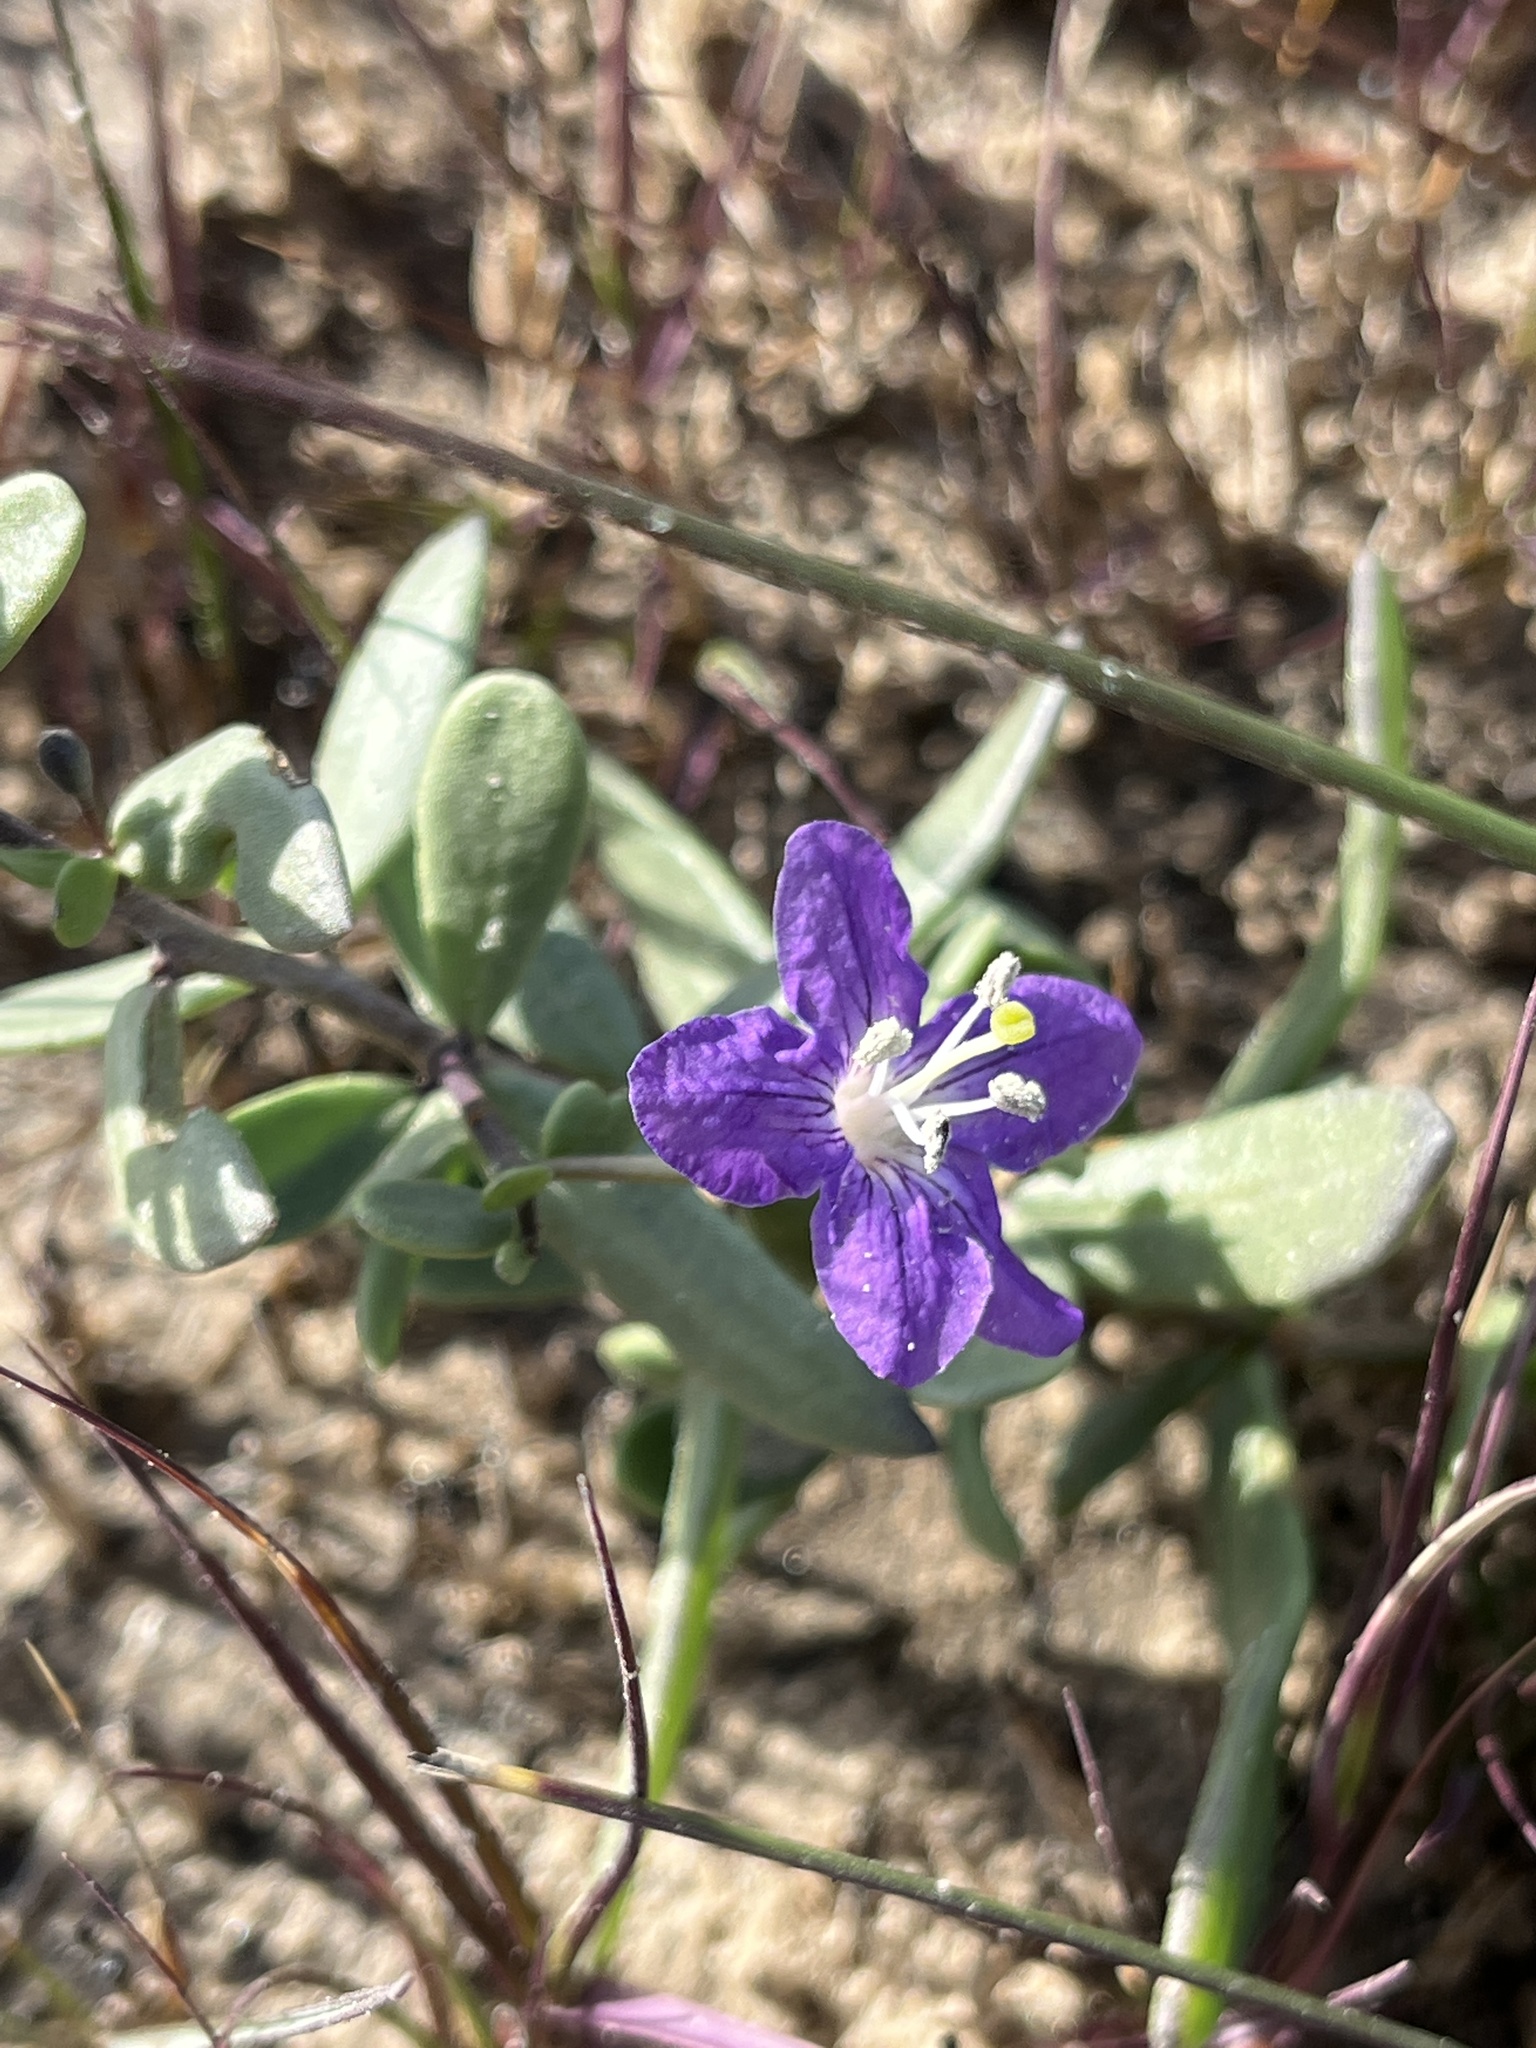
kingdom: Plantae
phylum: Tracheophyta
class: Magnoliopsida
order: Solanales
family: Solanaceae
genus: Lycium
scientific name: Lycium carolinianum
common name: Christmasberry
